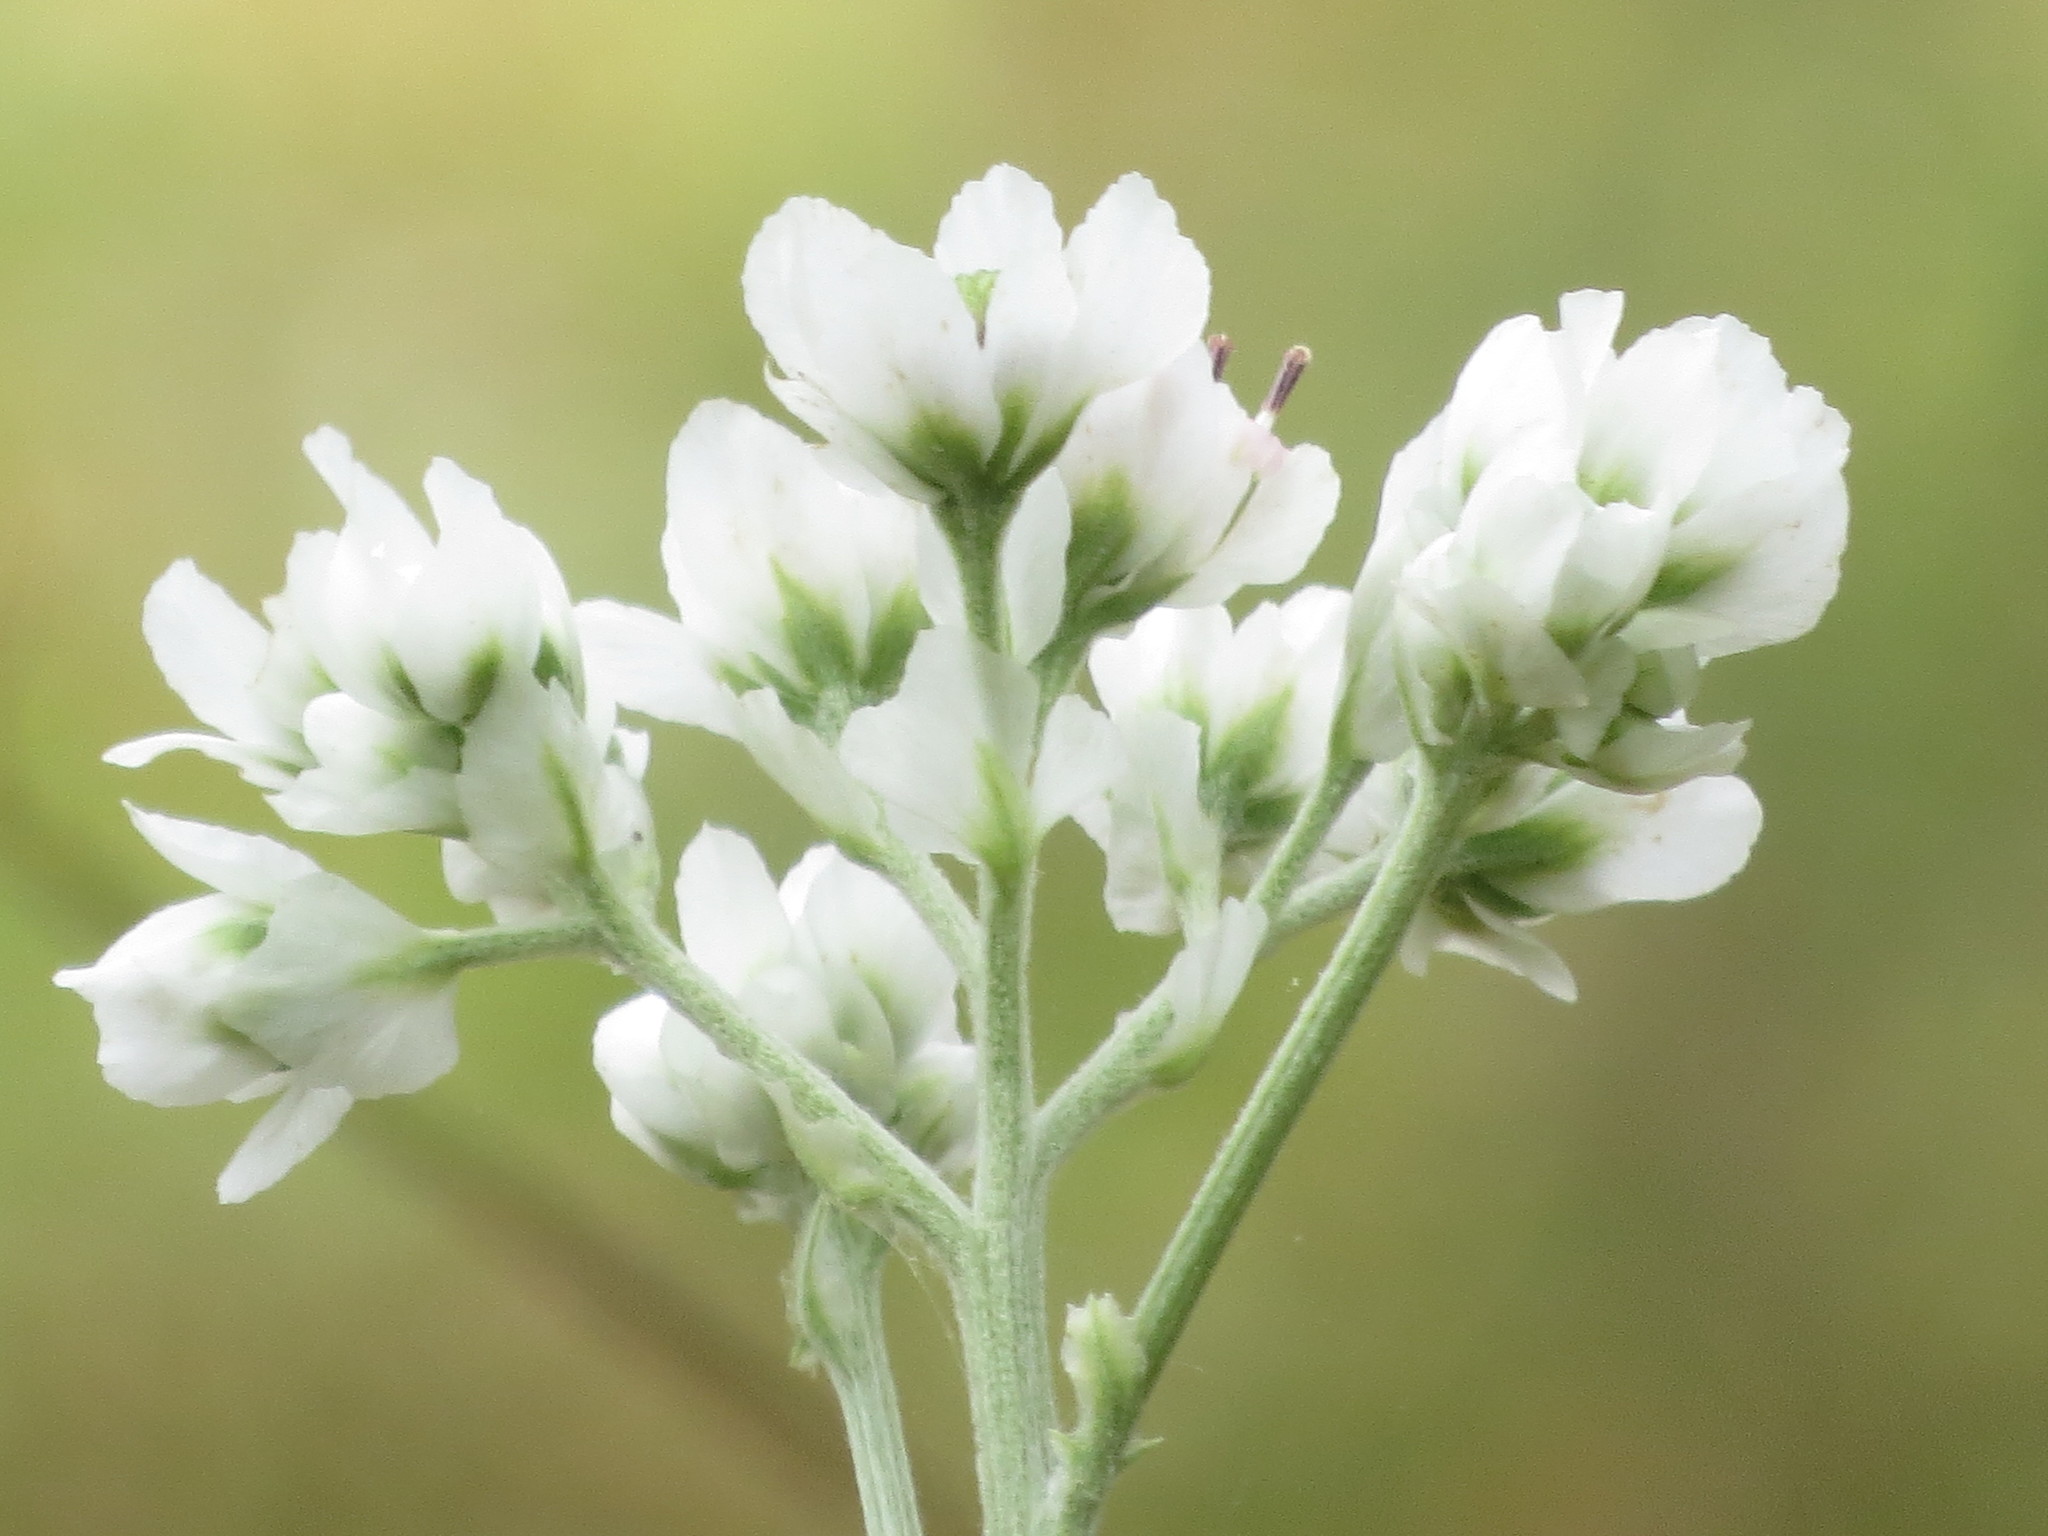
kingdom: Plantae
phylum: Tracheophyta
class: Magnoliopsida
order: Asterales
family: Asteraceae
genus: Hymenopappus
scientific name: Hymenopappus artemisiifolius
